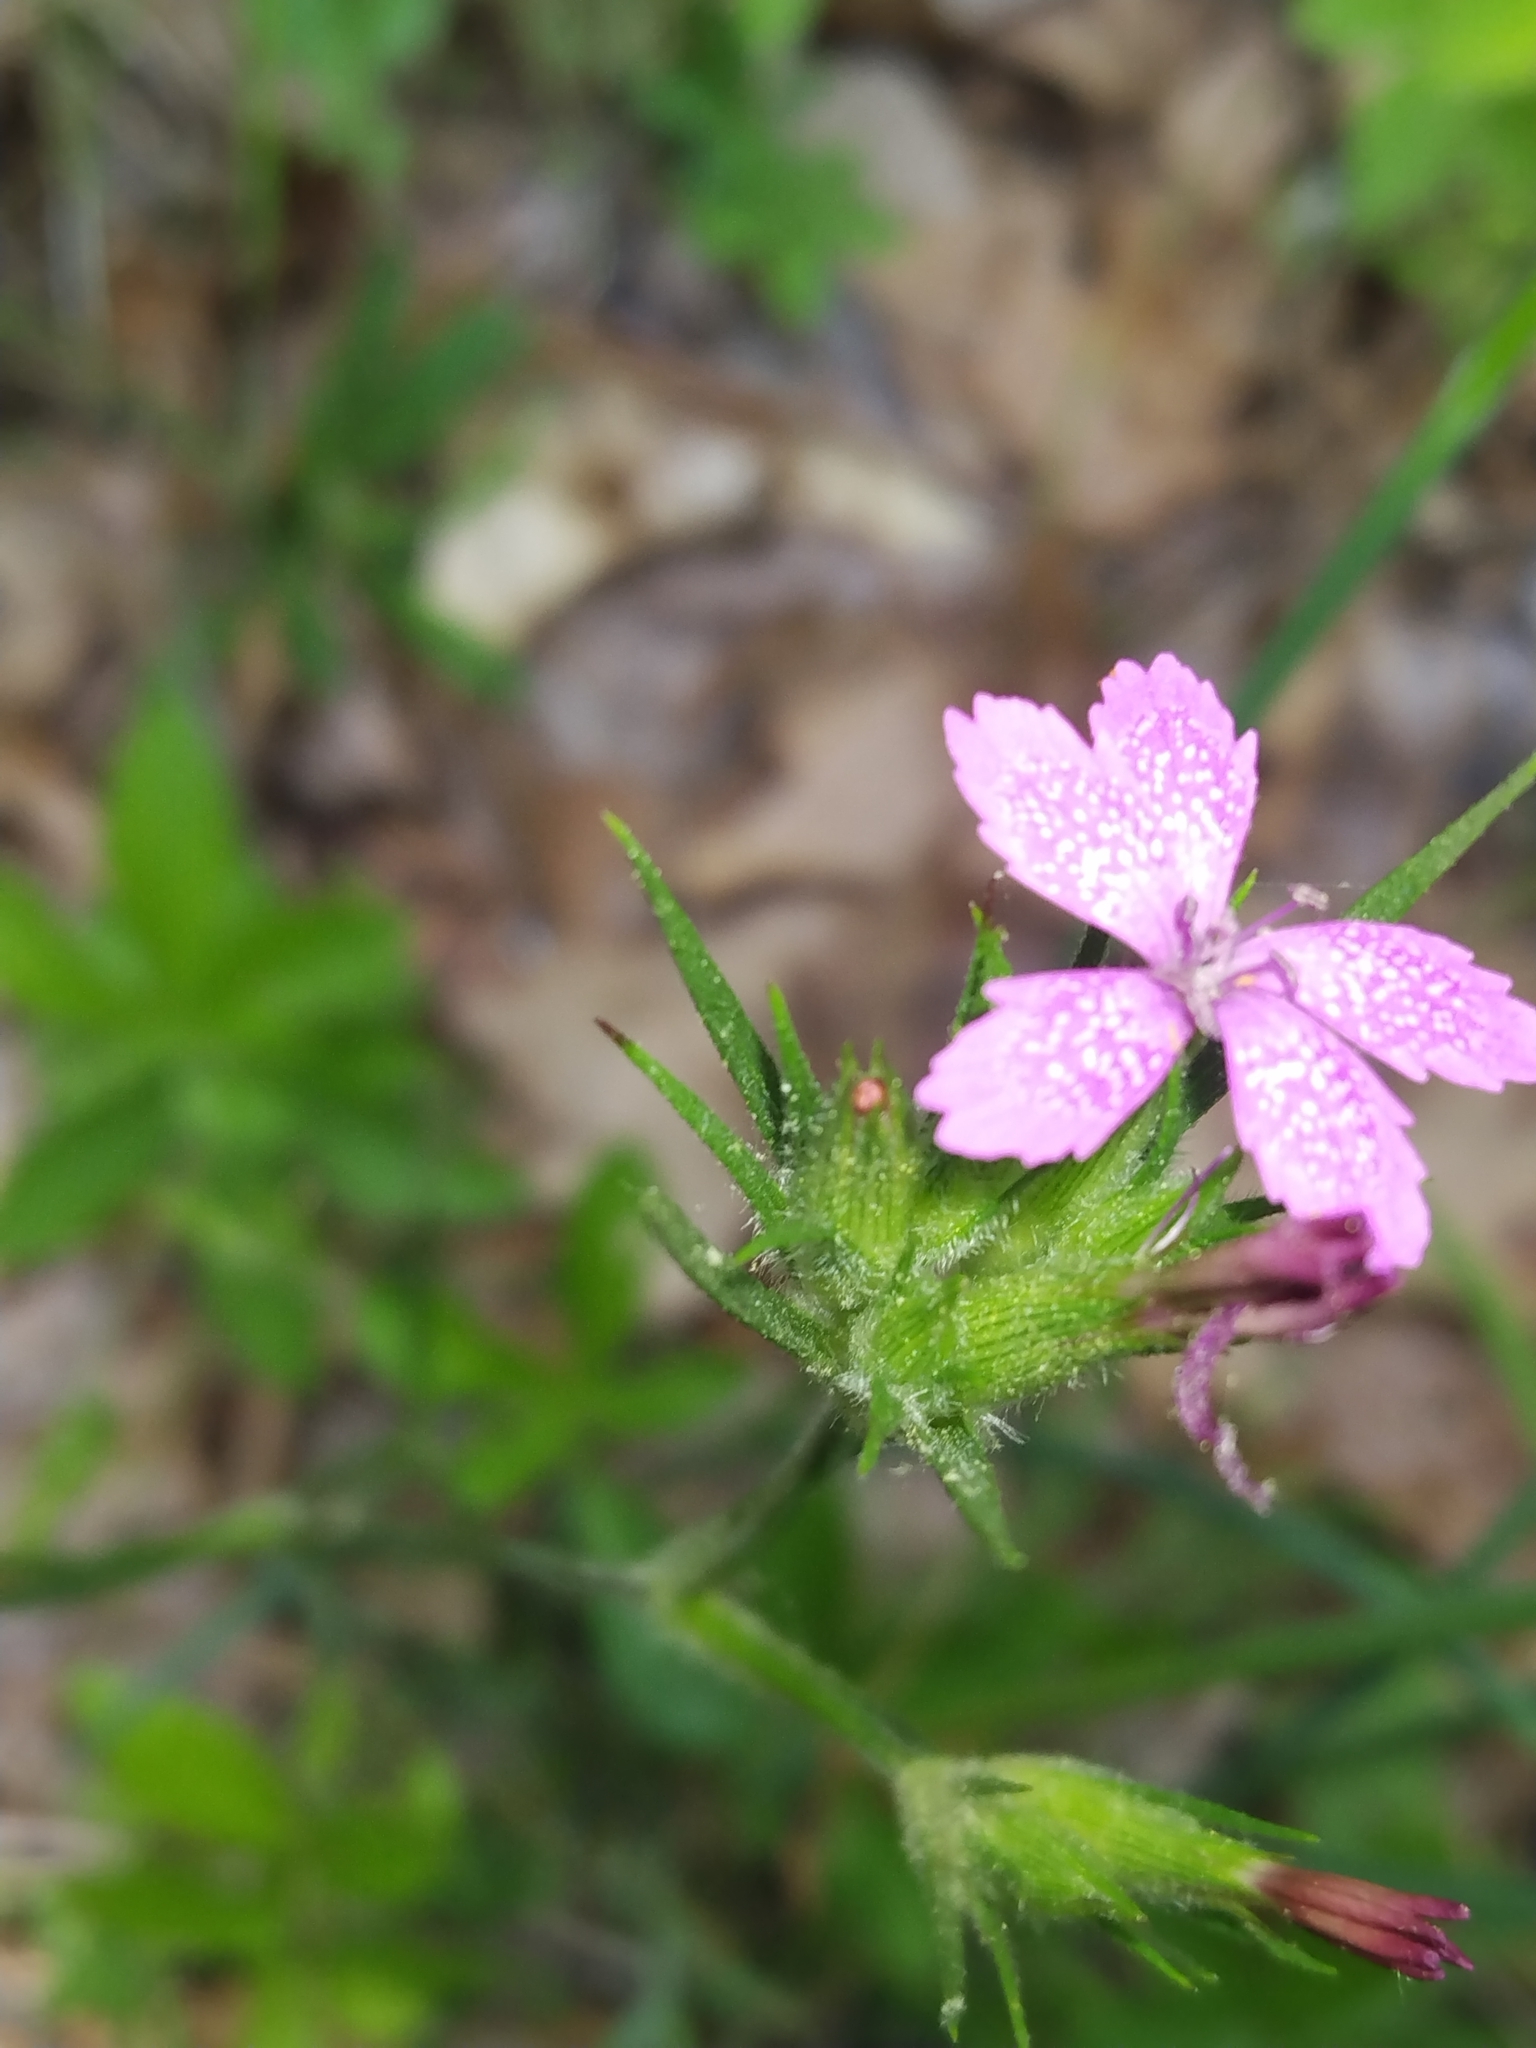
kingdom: Plantae
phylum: Tracheophyta
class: Magnoliopsida
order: Caryophyllales
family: Caryophyllaceae
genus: Dianthus
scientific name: Dianthus armeria
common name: Deptford pink
